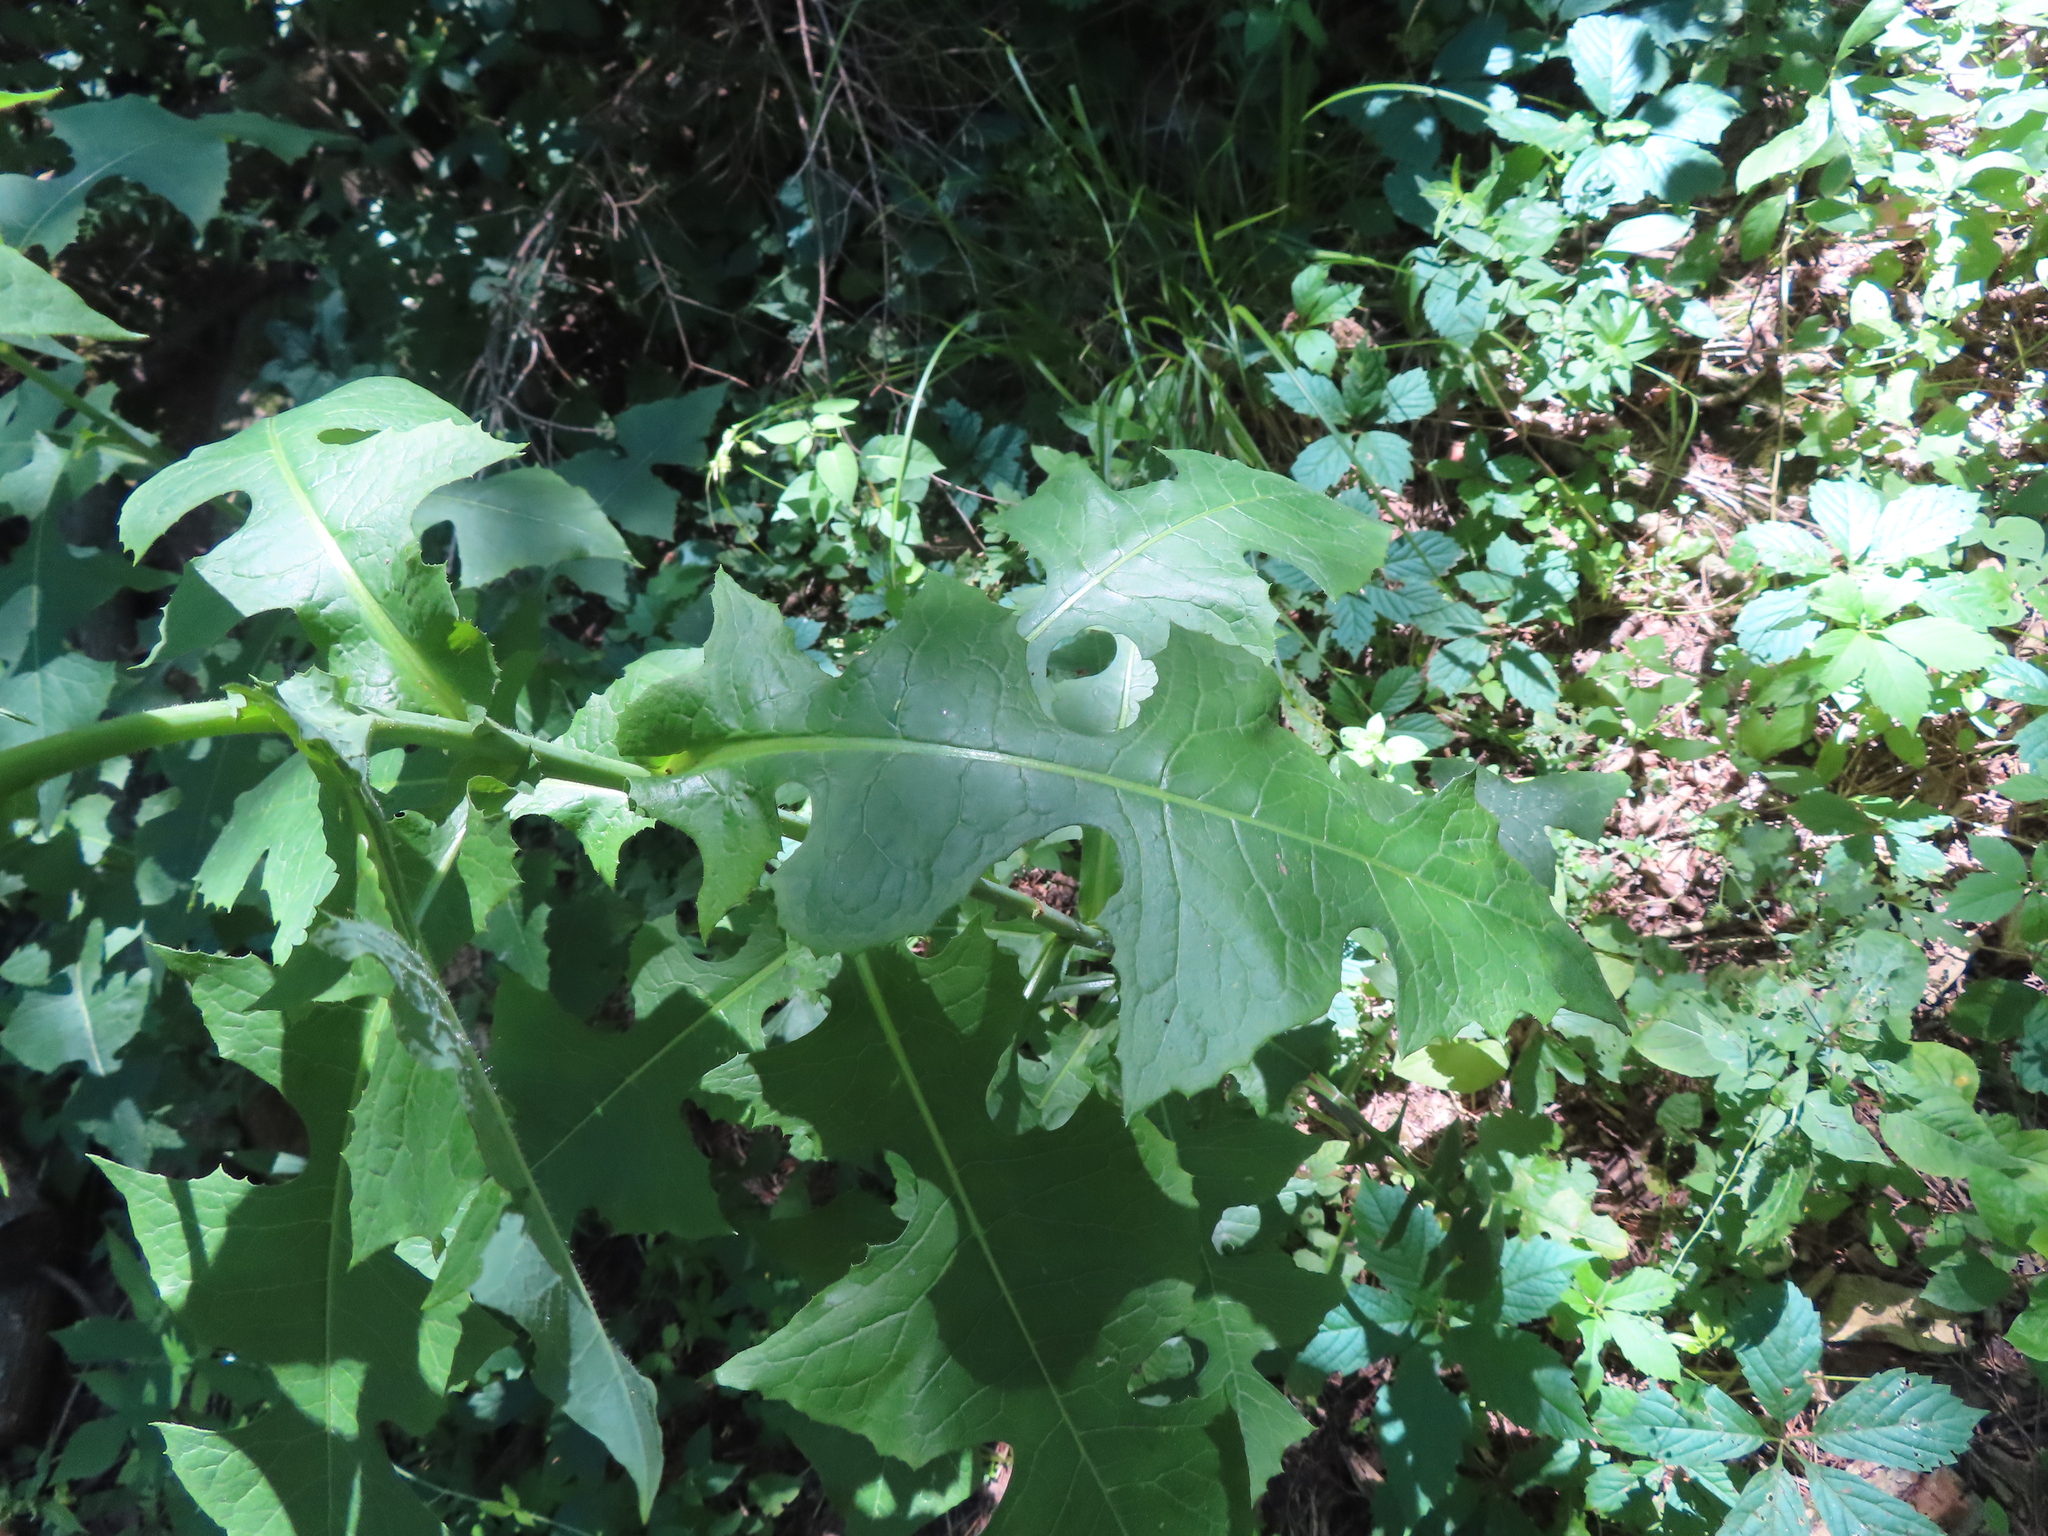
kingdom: Plantae
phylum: Tracheophyta
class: Magnoliopsida
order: Asterales
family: Asteraceae
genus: Lactuca
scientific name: Lactuca biennis
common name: Blue wood lettuce
